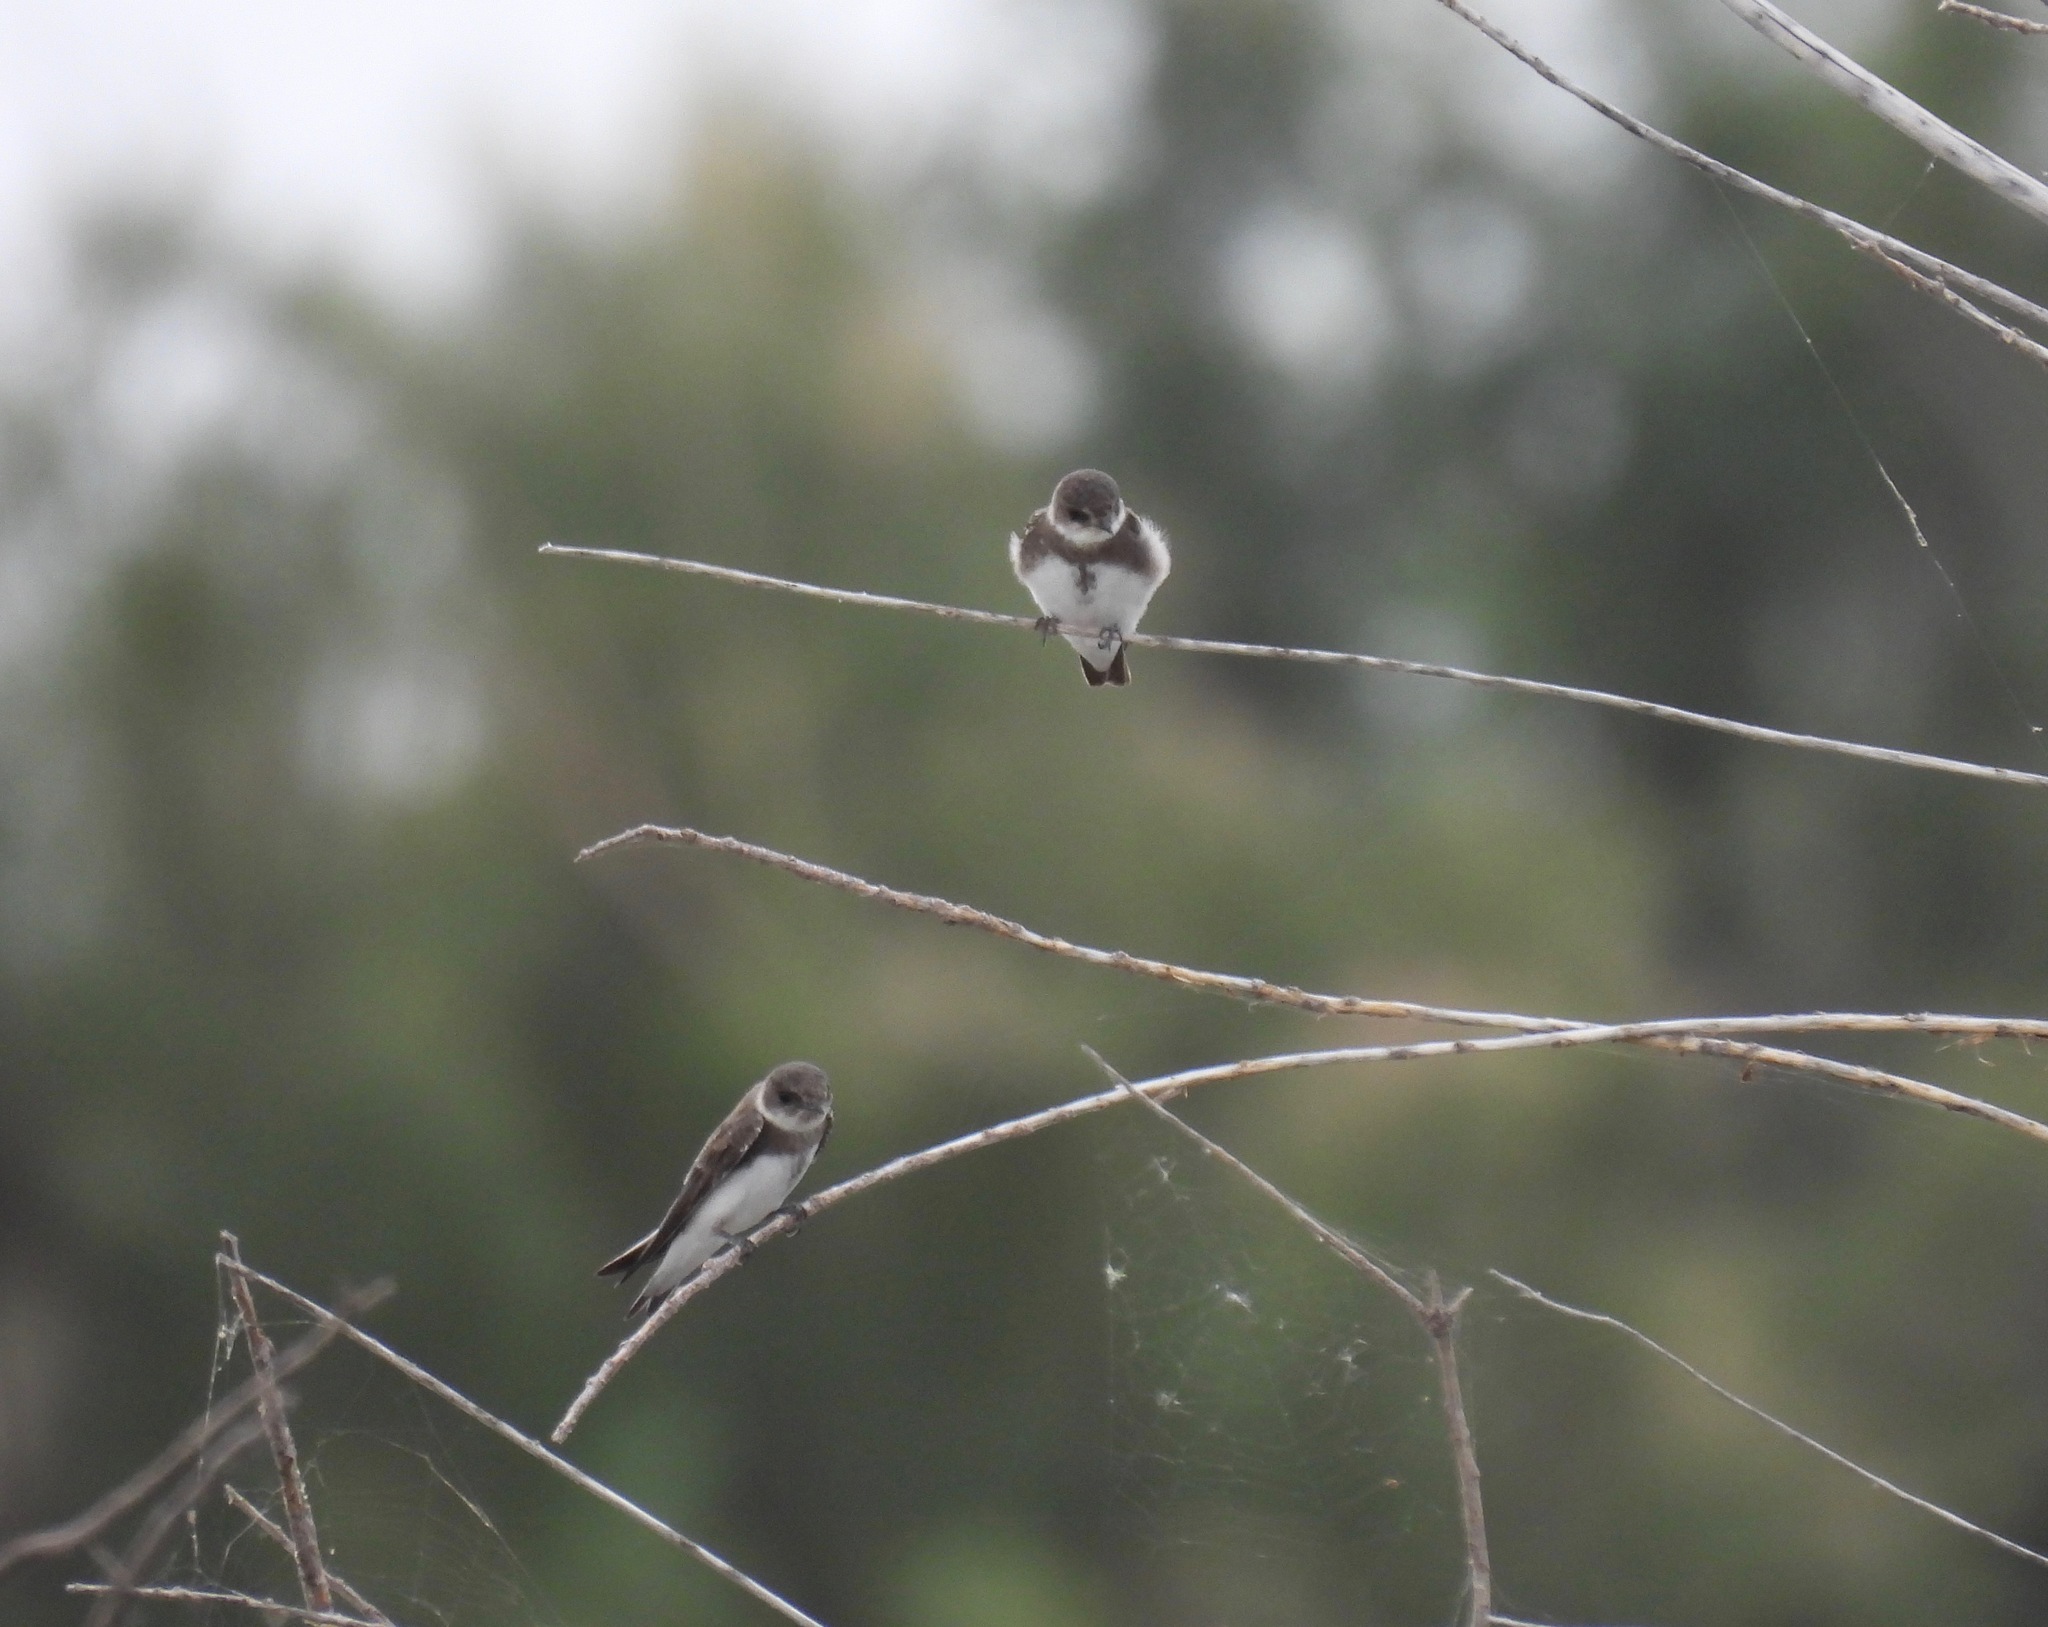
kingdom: Animalia
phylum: Chordata
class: Aves
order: Passeriformes
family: Hirundinidae
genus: Riparia
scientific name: Riparia riparia
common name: Sand martin
